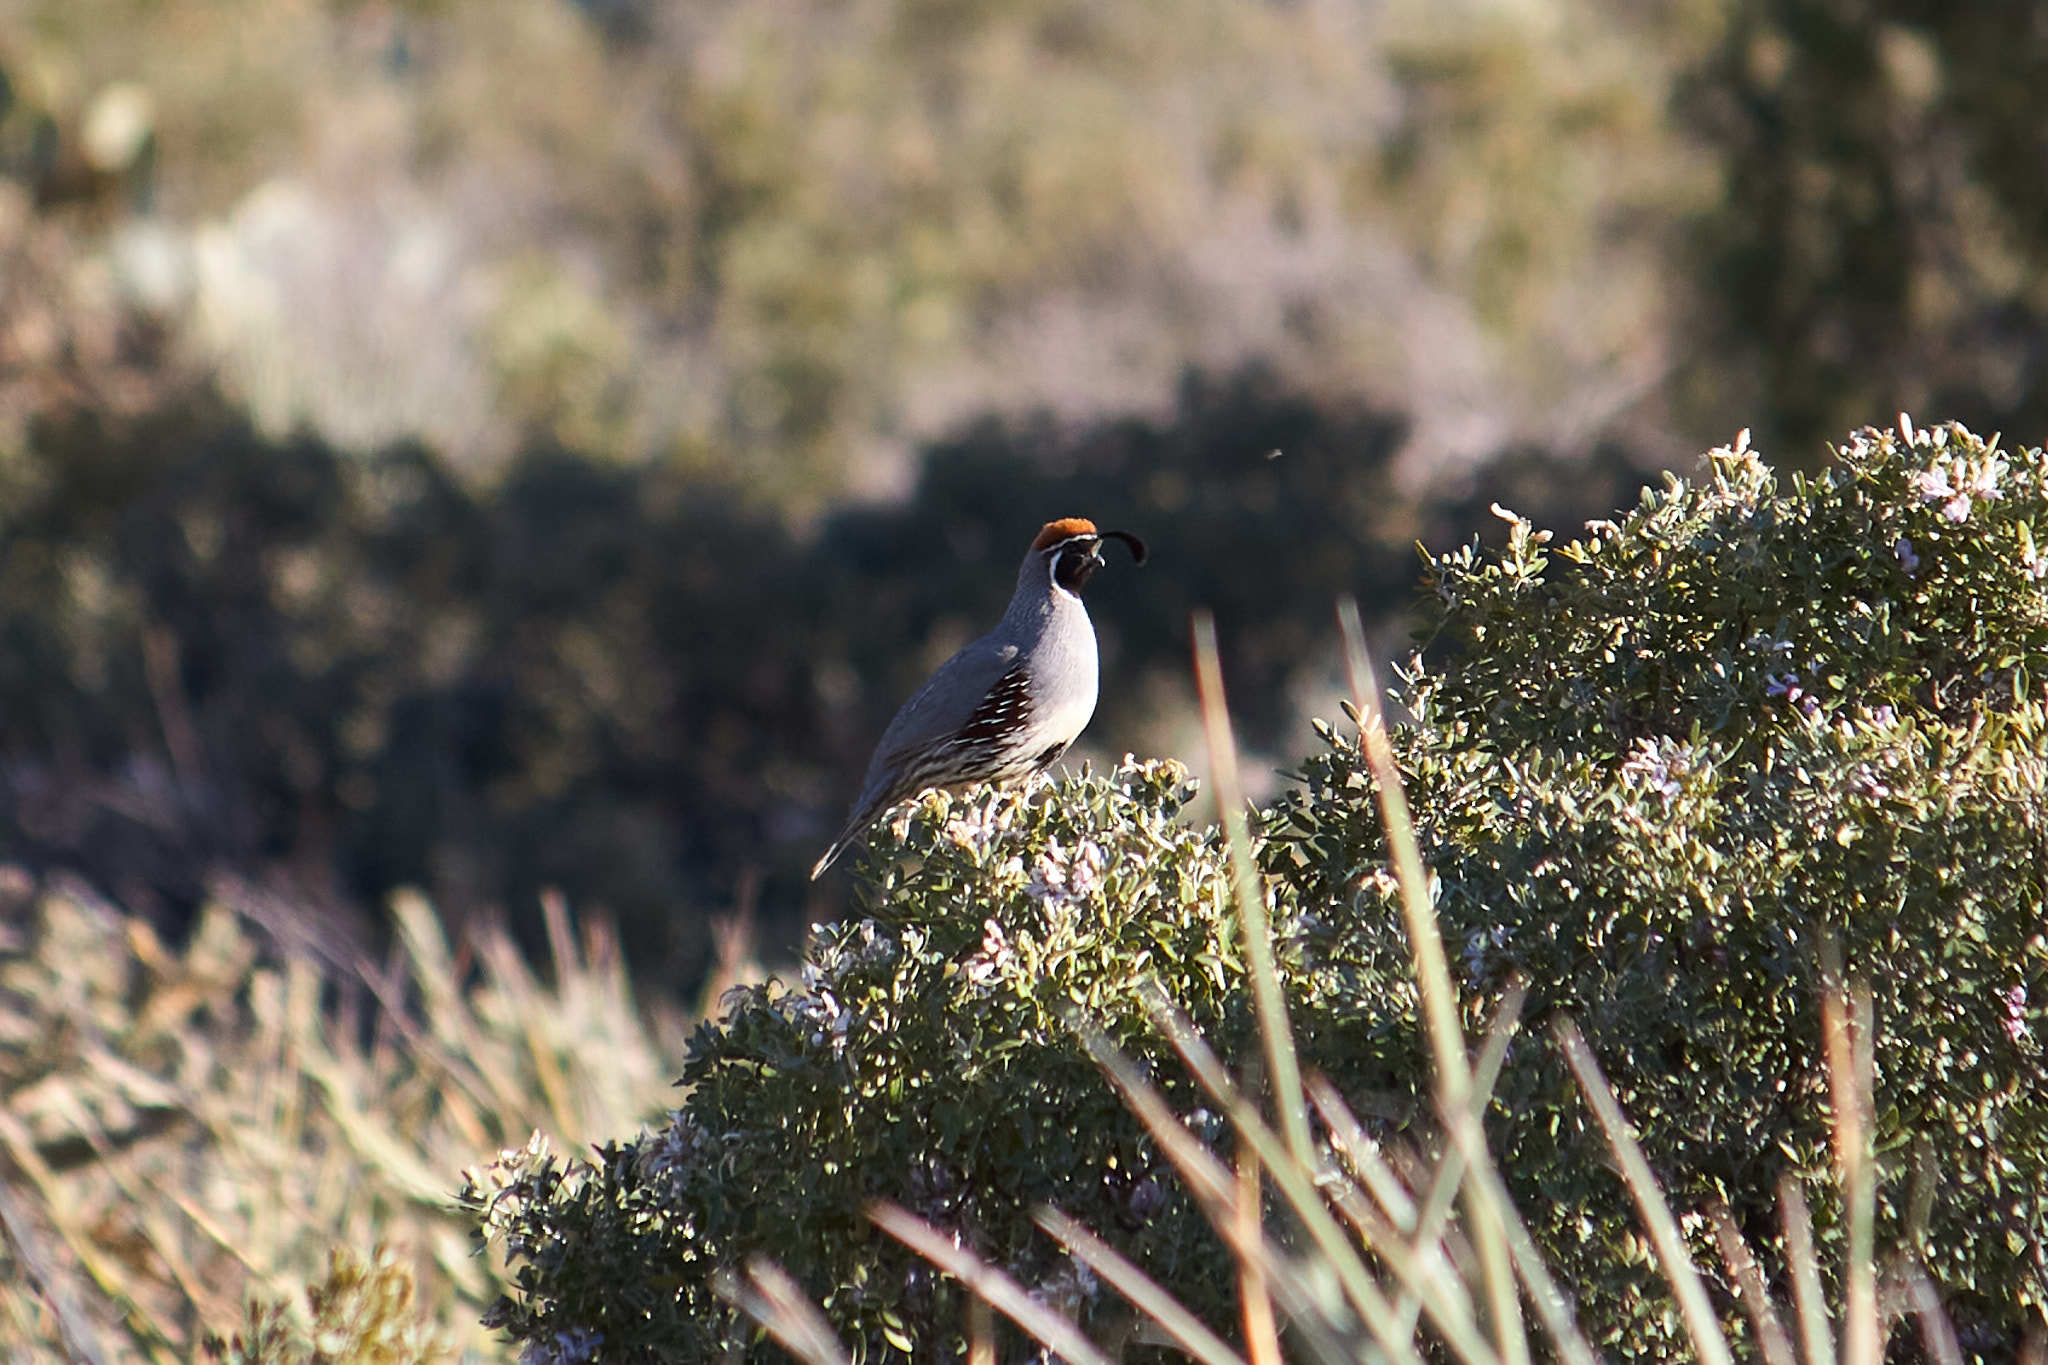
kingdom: Animalia
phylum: Chordata
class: Aves
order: Galliformes
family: Odontophoridae
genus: Callipepla
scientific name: Callipepla gambelii
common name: Gambel's quail
